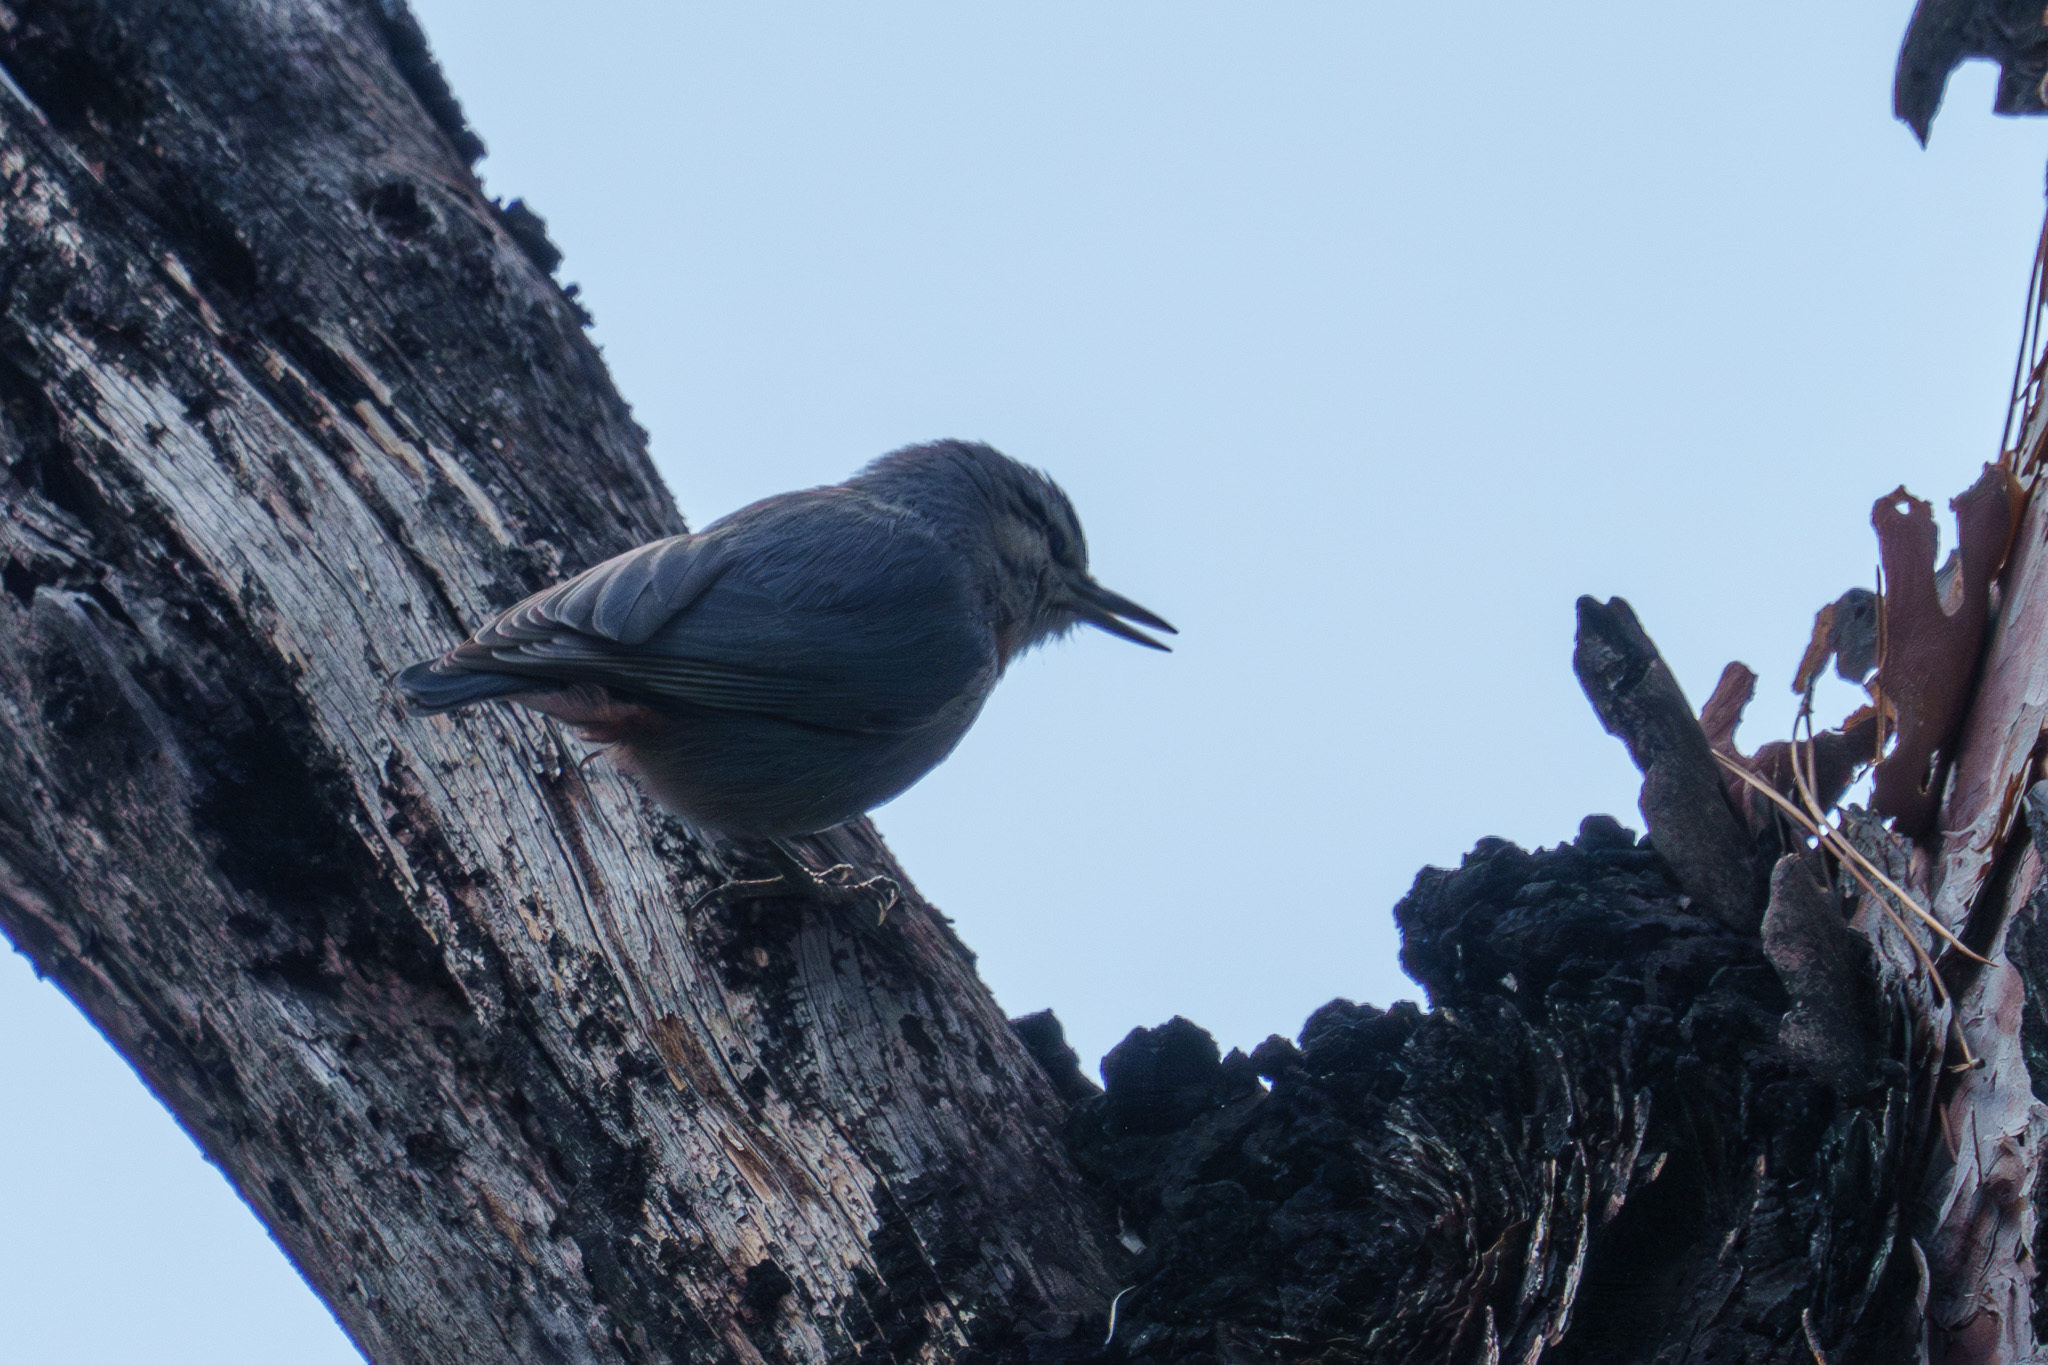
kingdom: Animalia
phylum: Chordata
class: Aves
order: Passeriformes
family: Sittidae
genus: Sitta
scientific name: Sitta krueperi
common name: Krüper's nuthatch
